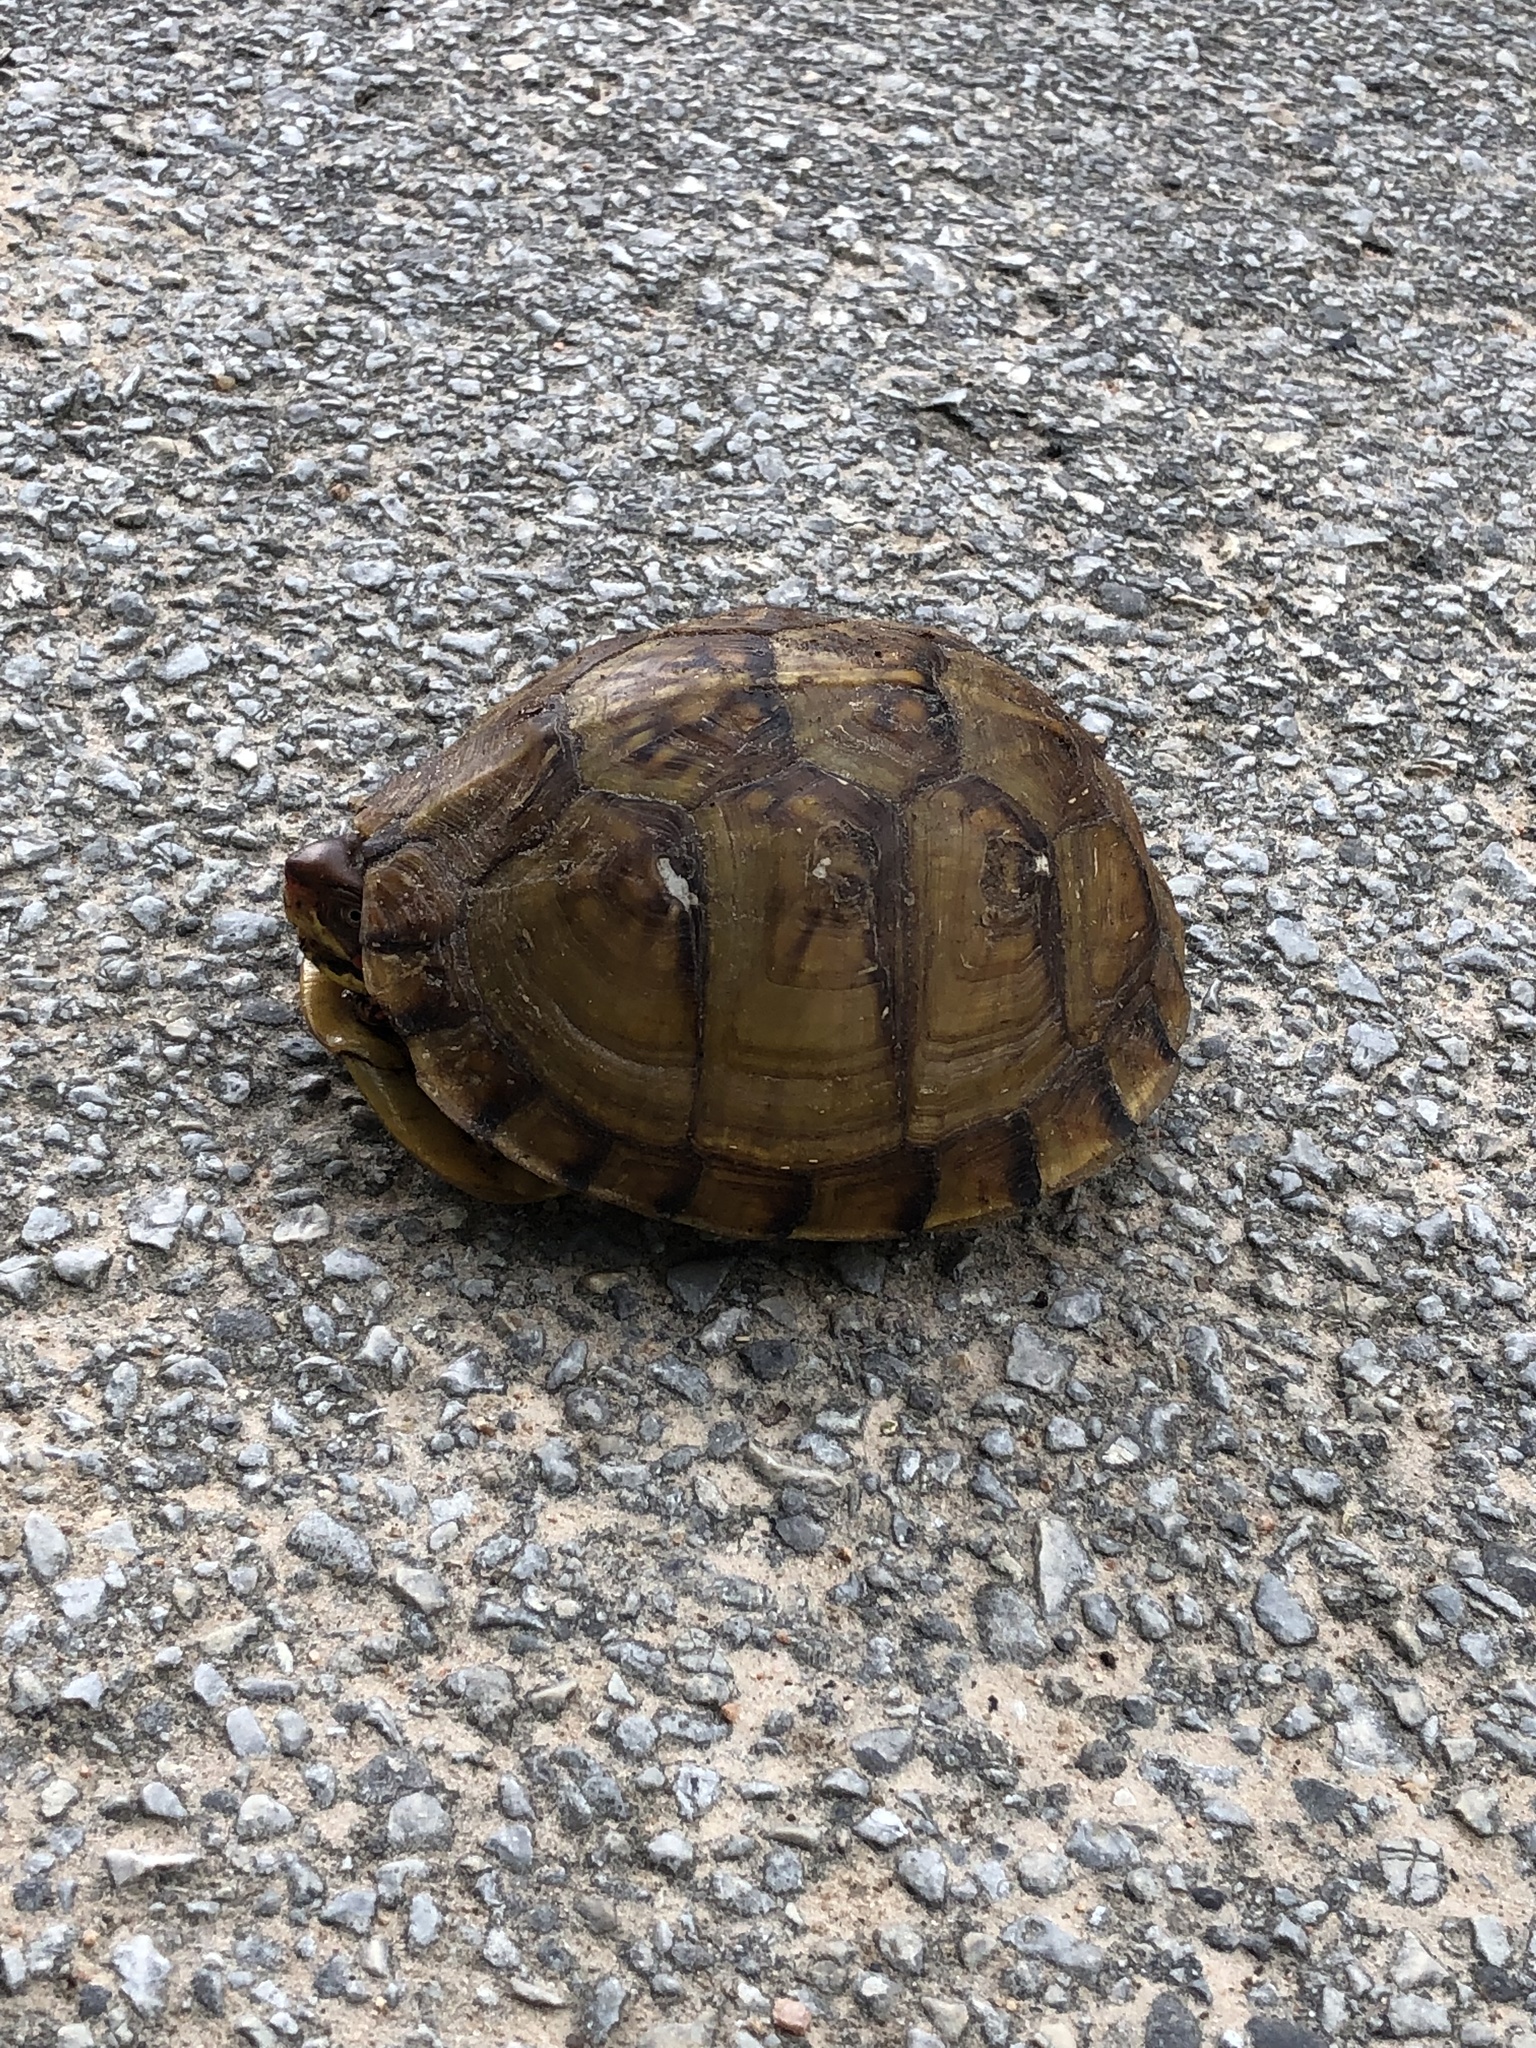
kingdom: Animalia
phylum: Chordata
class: Testudines
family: Emydidae
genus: Terrapene
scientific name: Terrapene carolina
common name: Common box turtle
